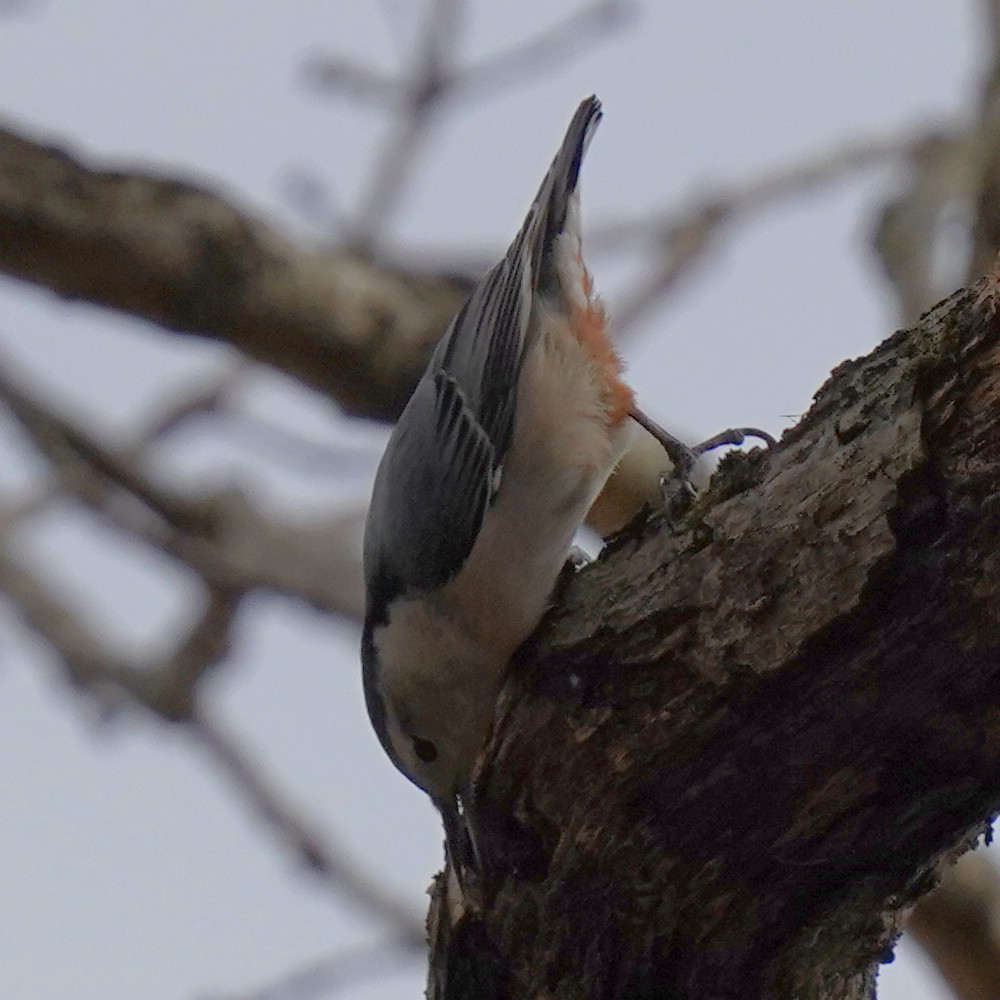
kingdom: Animalia
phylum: Chordata
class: Aves
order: Passeriformes
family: Sittidae
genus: Sitta
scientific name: Sitta carolinensis
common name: White-breasted nuthatch
